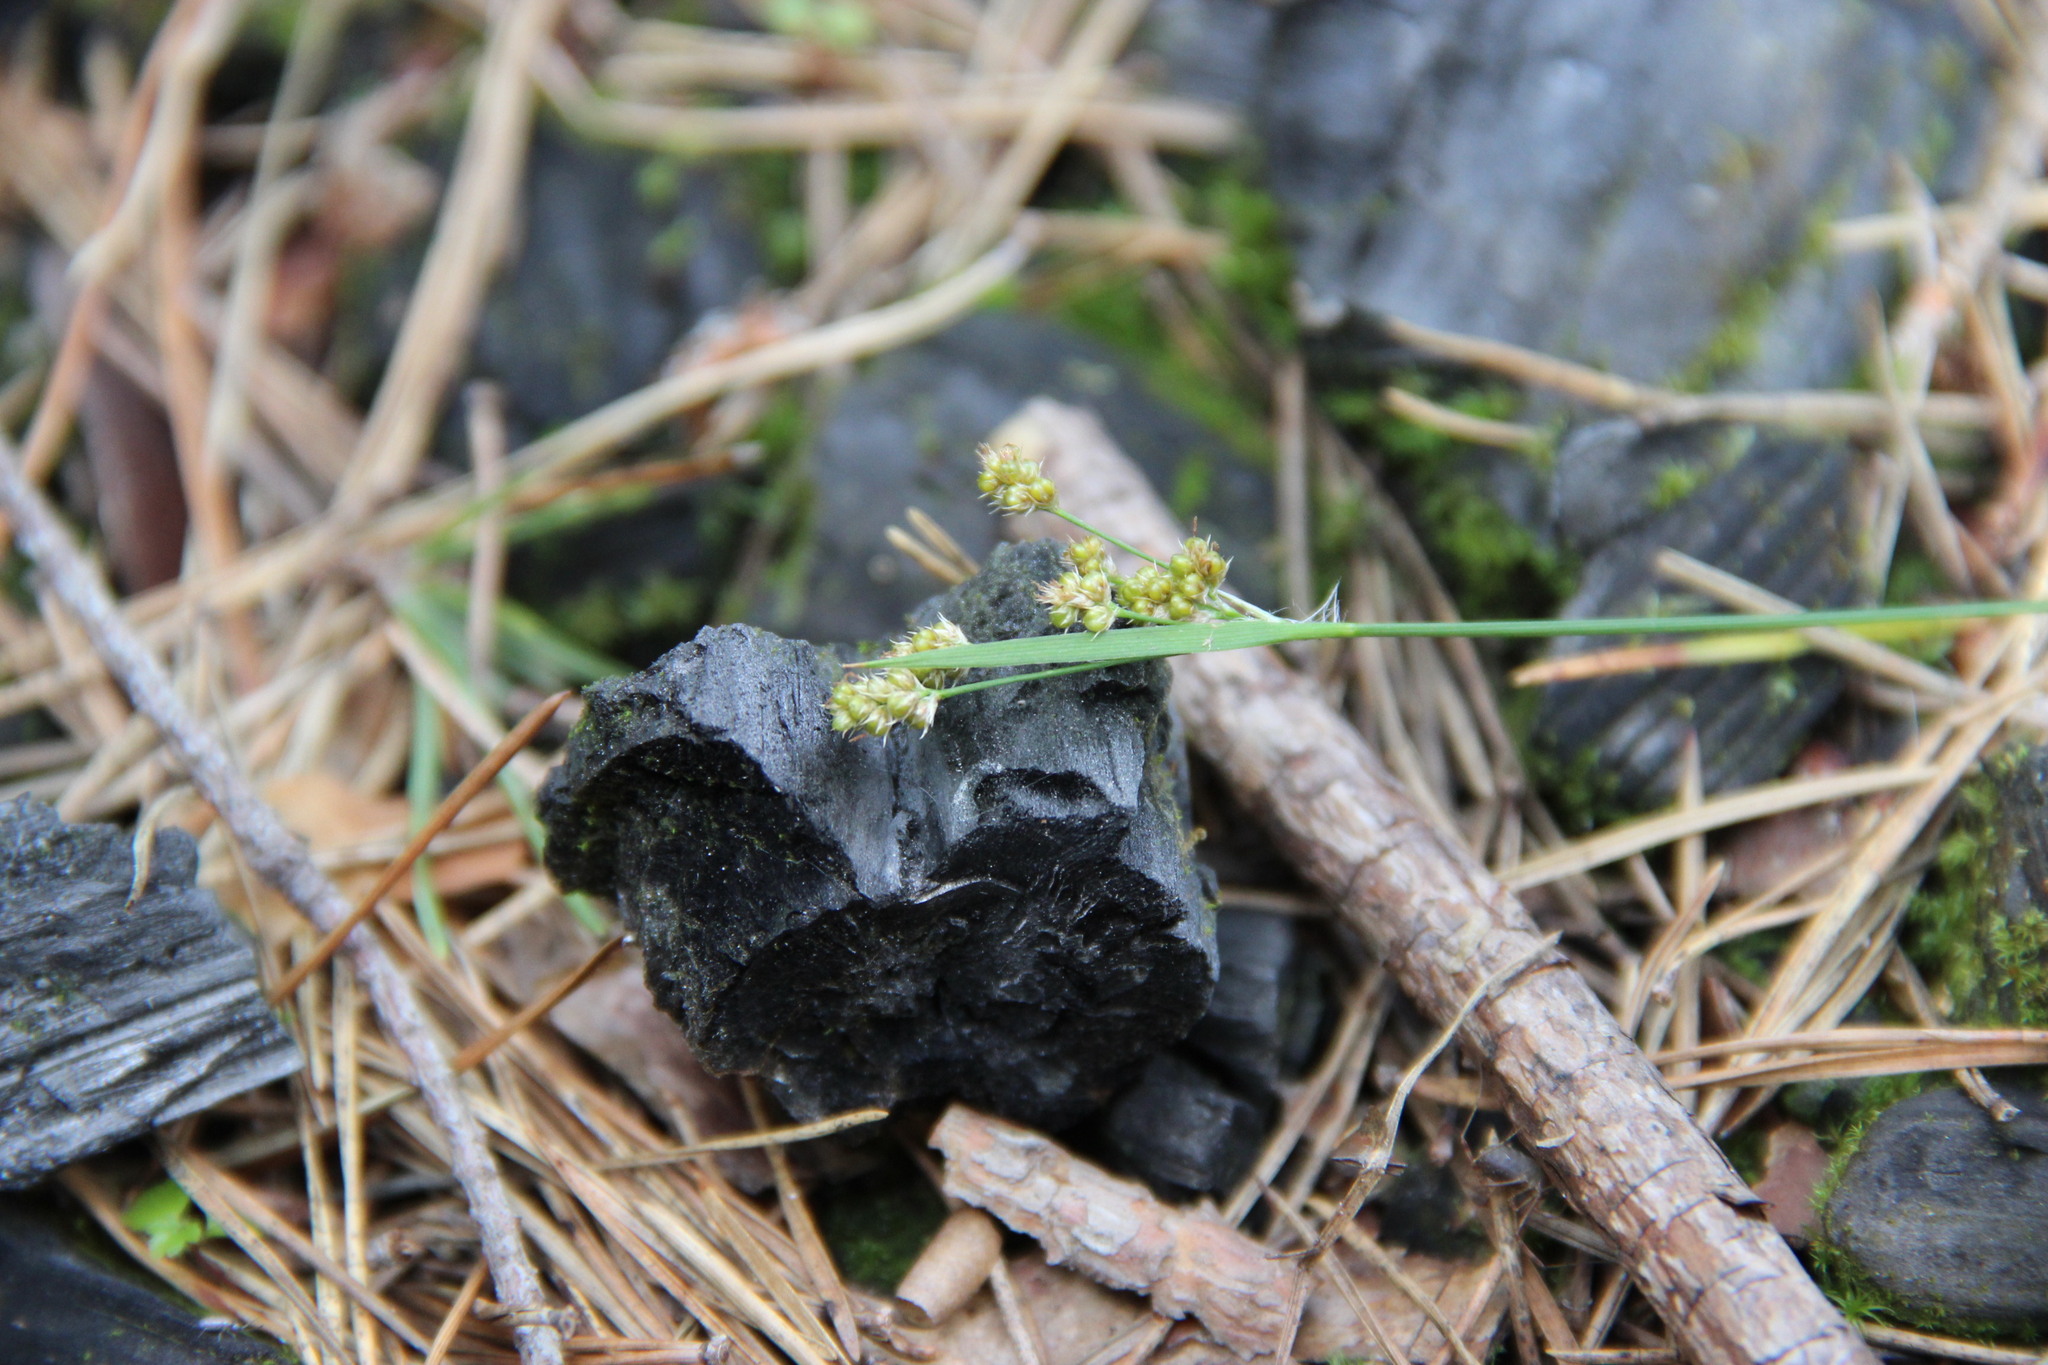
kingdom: Plantae
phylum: Tracheophyta
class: Liliopsida
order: Poales
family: Juncaceae
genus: Luzula
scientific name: Luzula pilosa
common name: Hairy wood-rush
